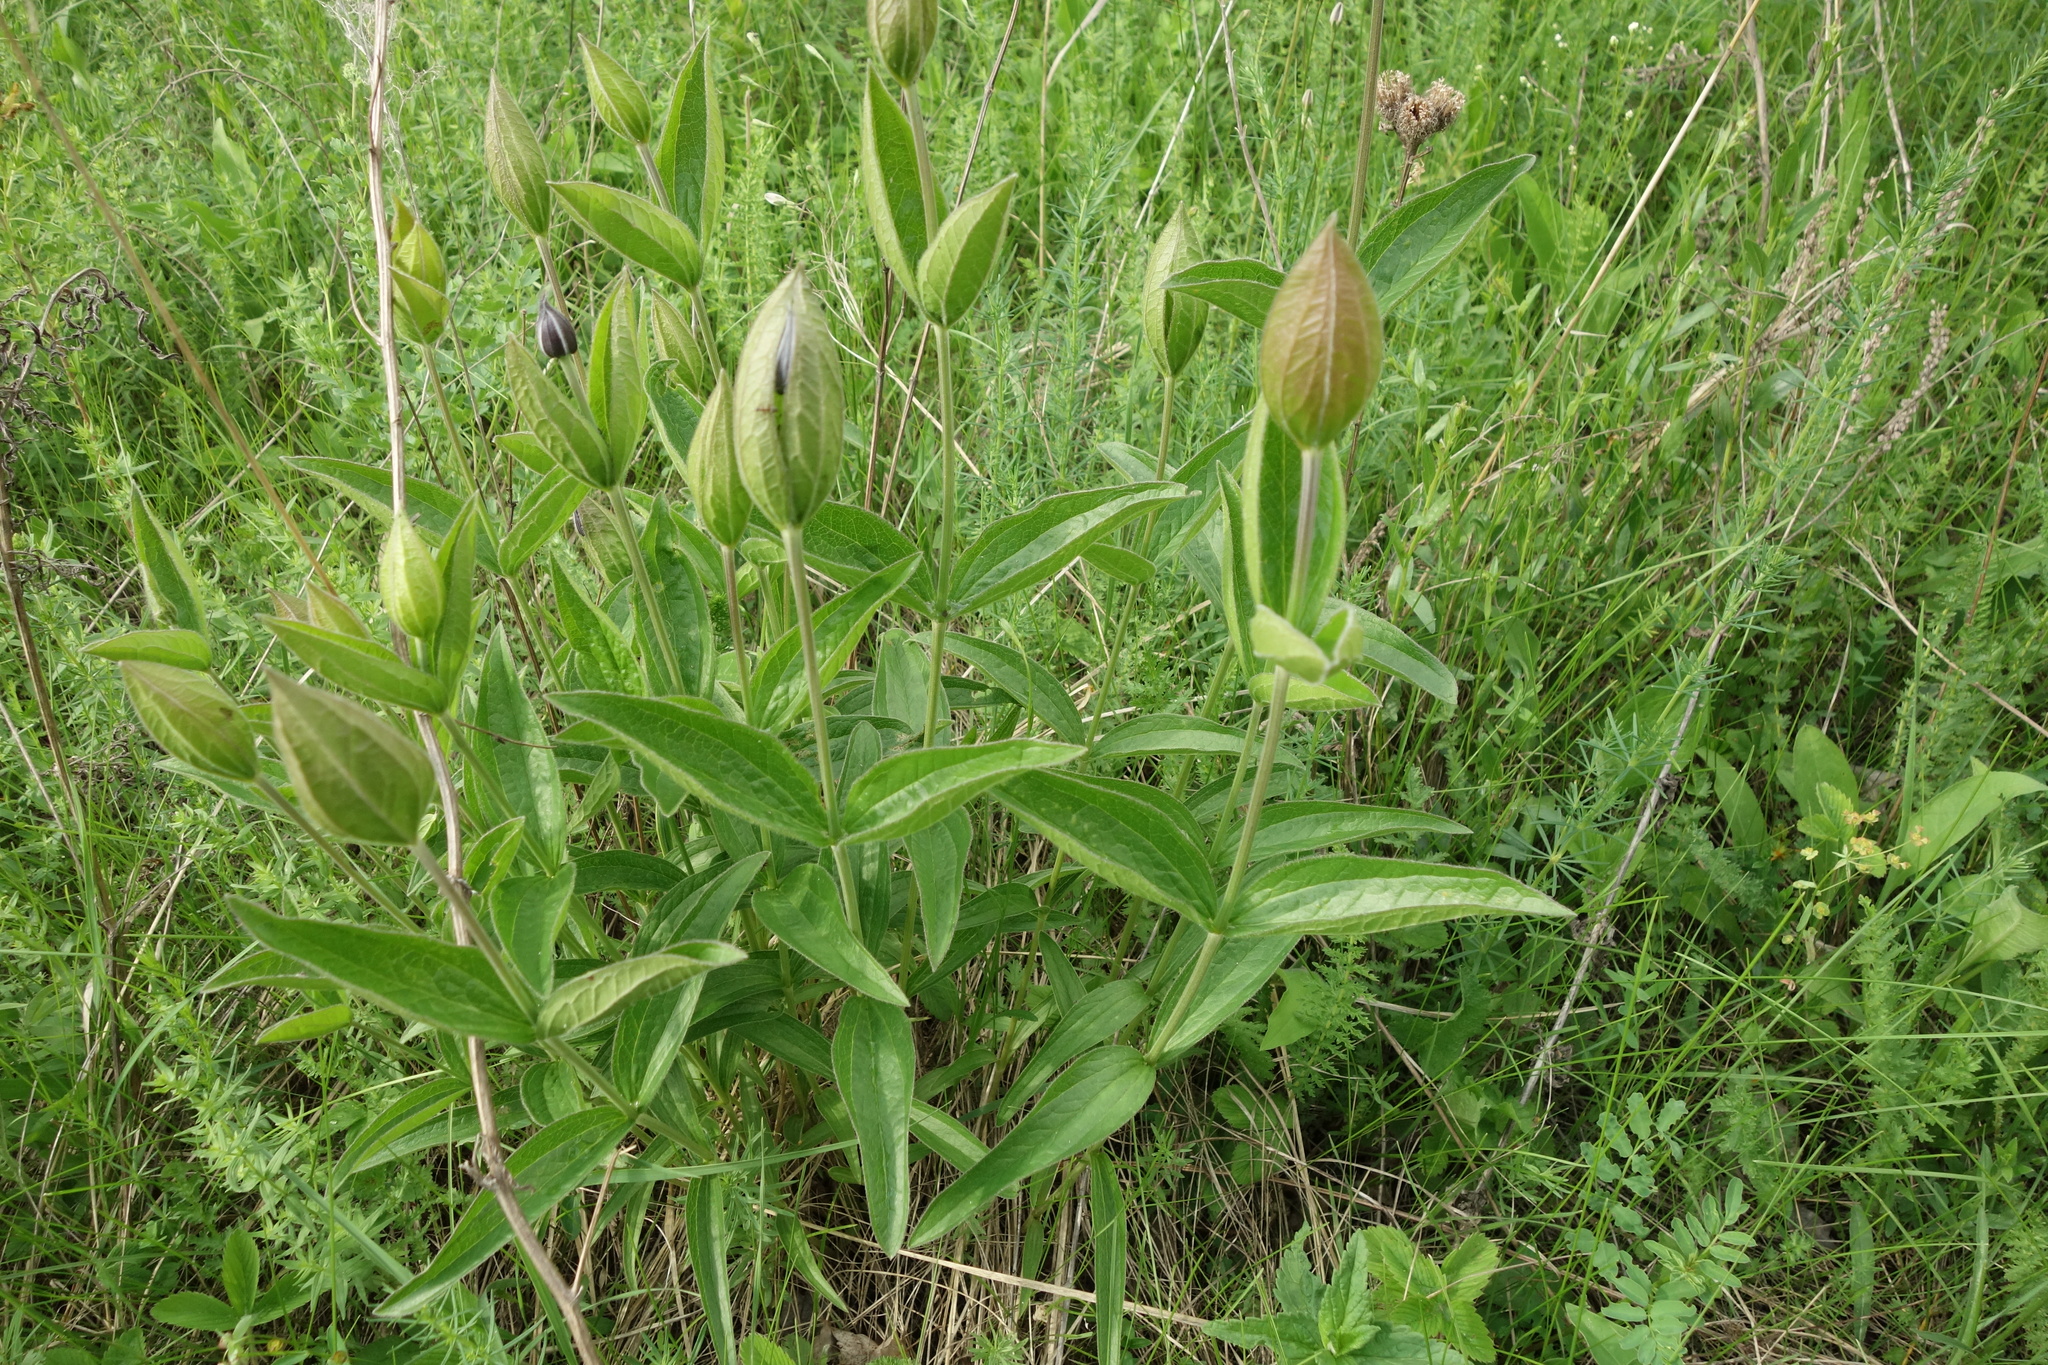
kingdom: Plantae
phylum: Tracheophyta
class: Magnoliopsida
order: Ranunculales
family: Ranunculaceae
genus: Clematis
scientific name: Clematis integrifolia
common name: Solitary clematis
